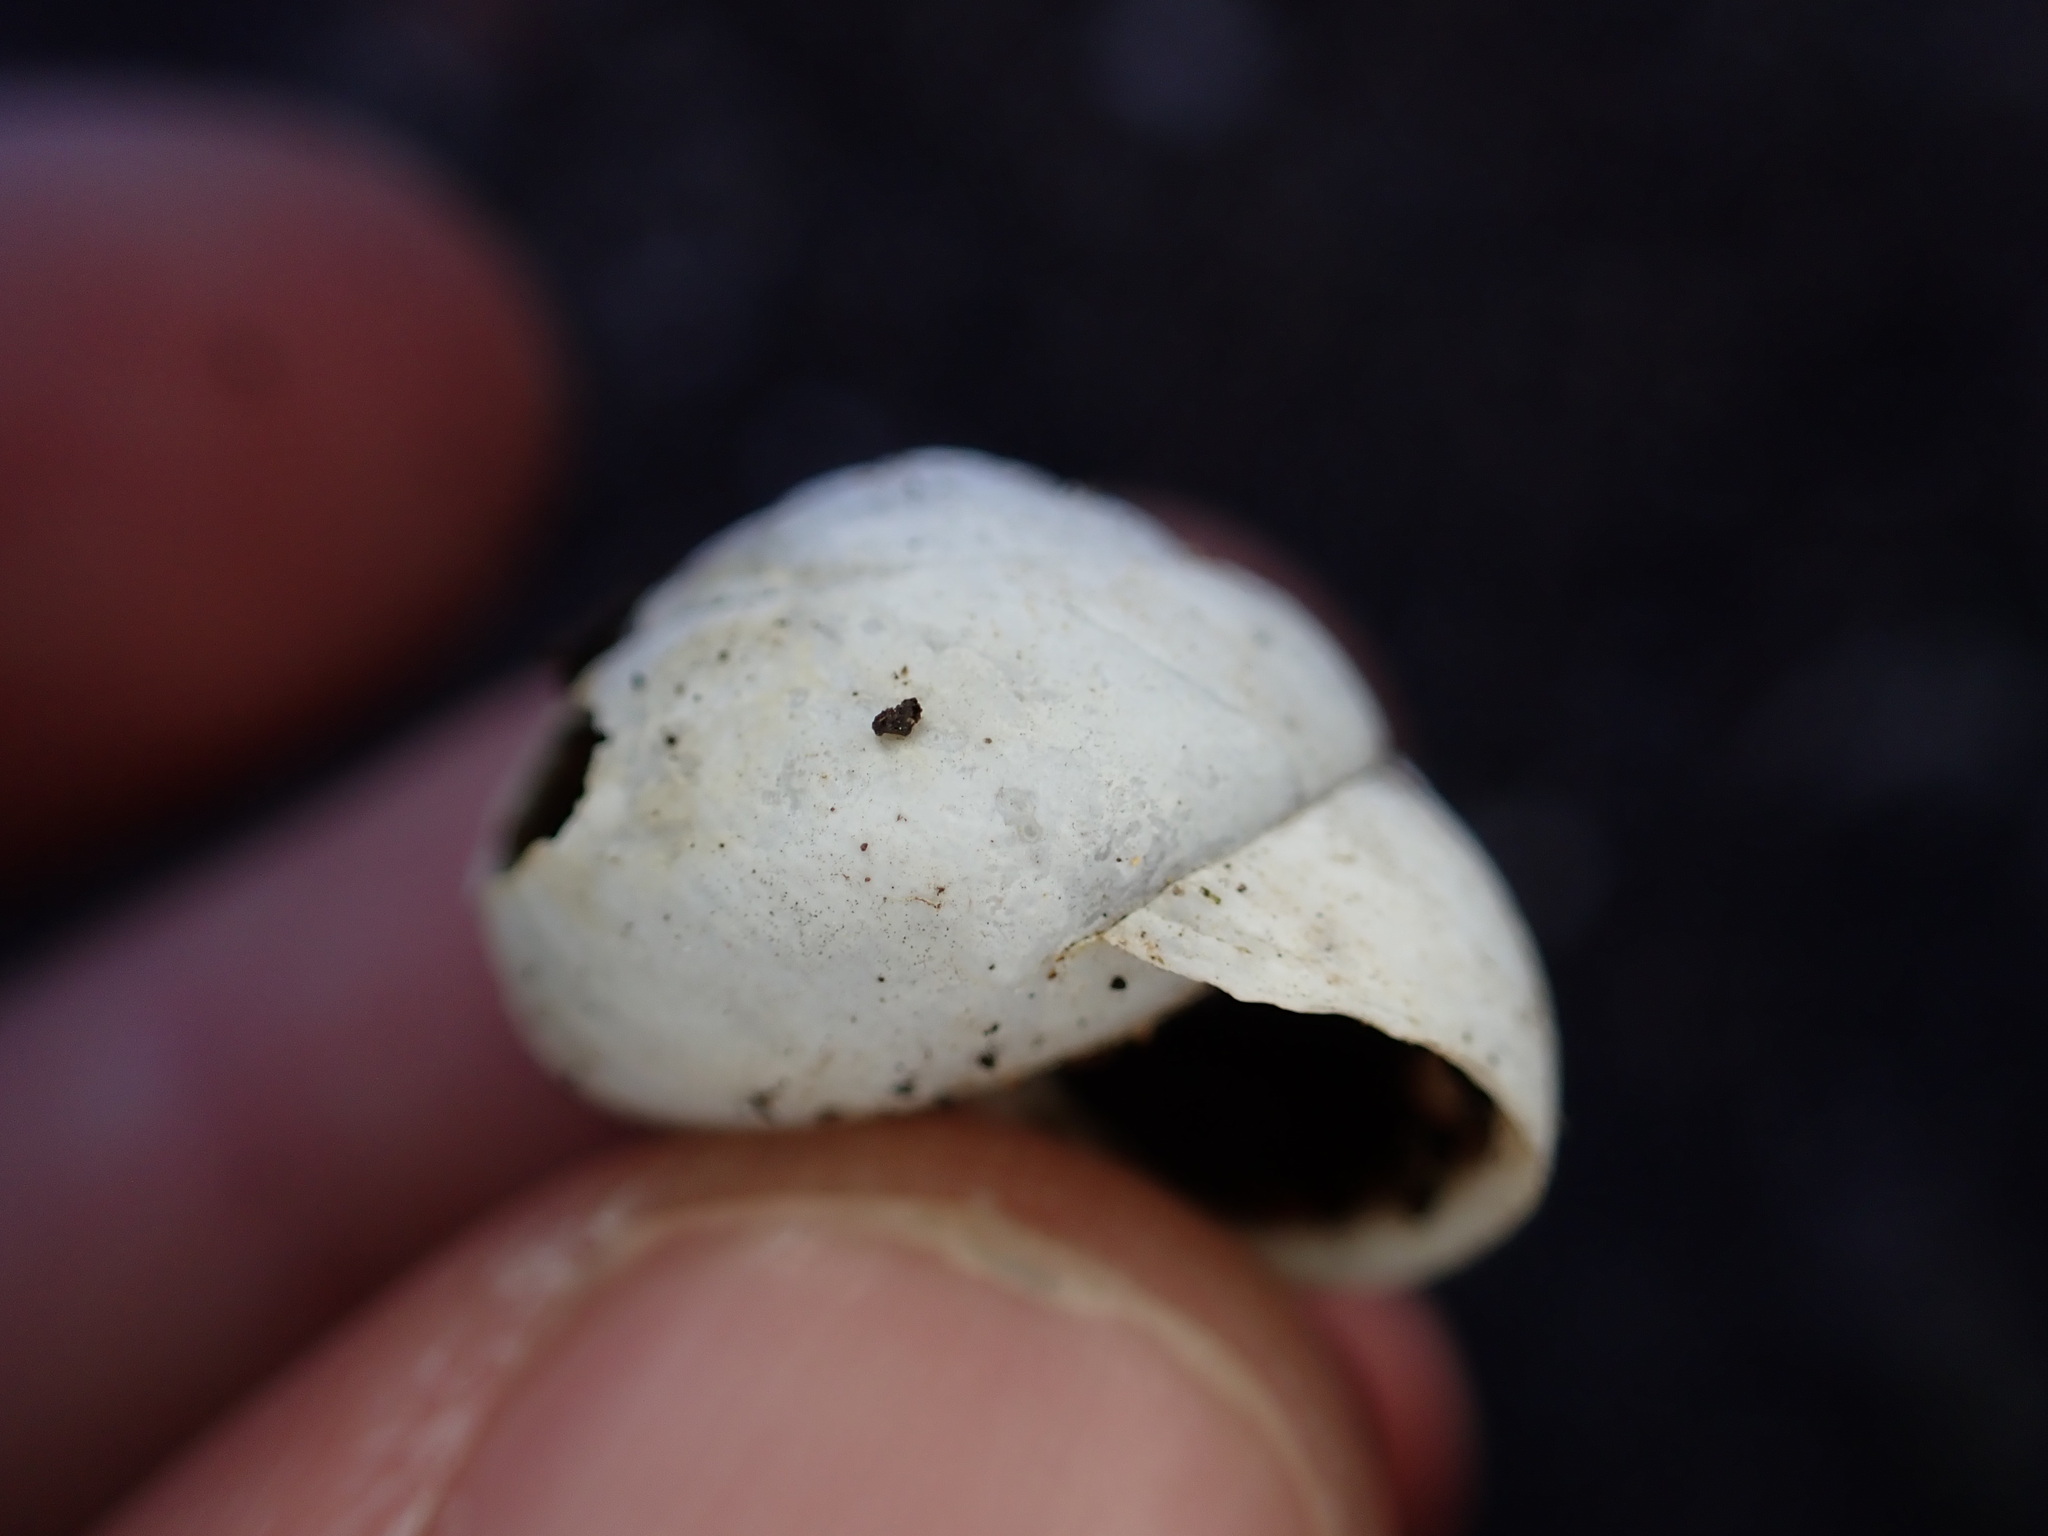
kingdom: Animalia
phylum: Mollusca
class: Gastropoda
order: Stylommatophora
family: Sphincterochilidae
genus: Sphincterochila
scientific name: Sphincterochila candidissima
